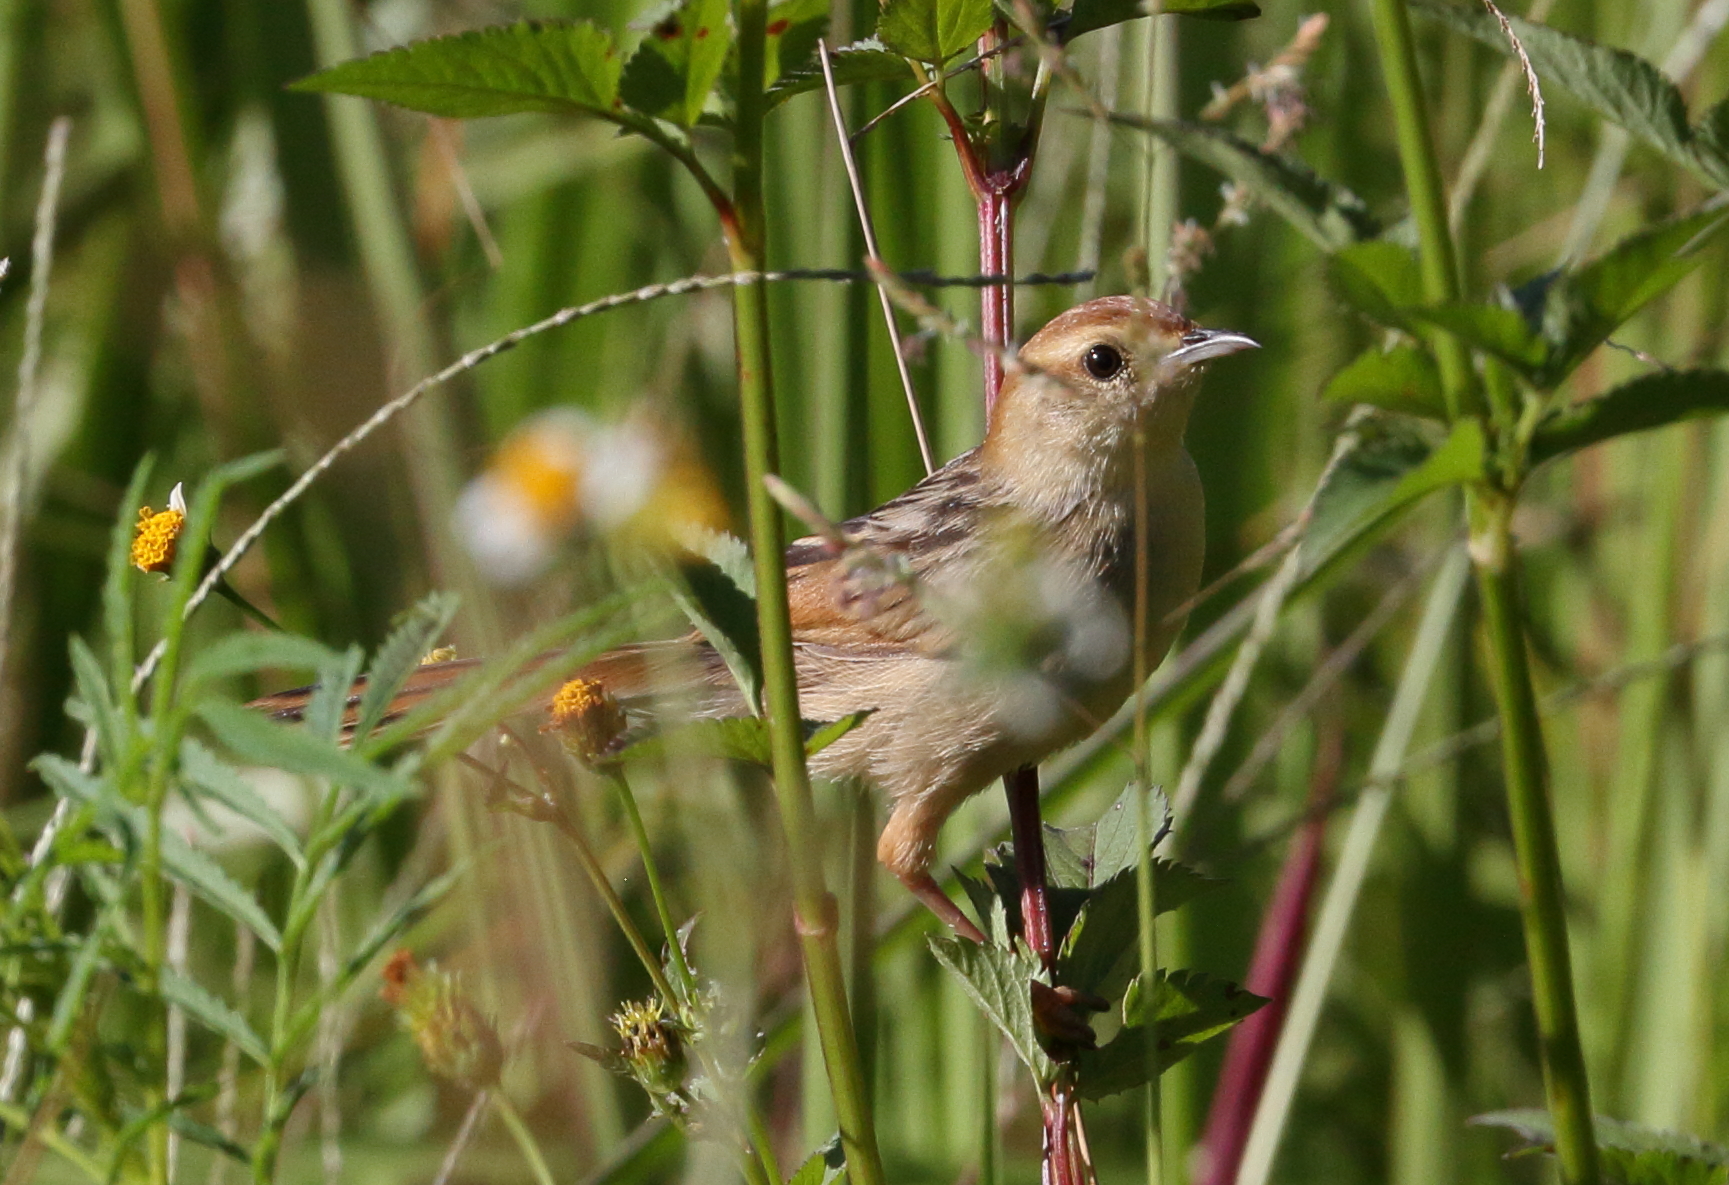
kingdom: Animalia
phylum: Chordata
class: Aves
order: Passeriformes
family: Cisticolidae
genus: Cisticola
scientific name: Cisticola tinniens
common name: Levaillant's cisticola
